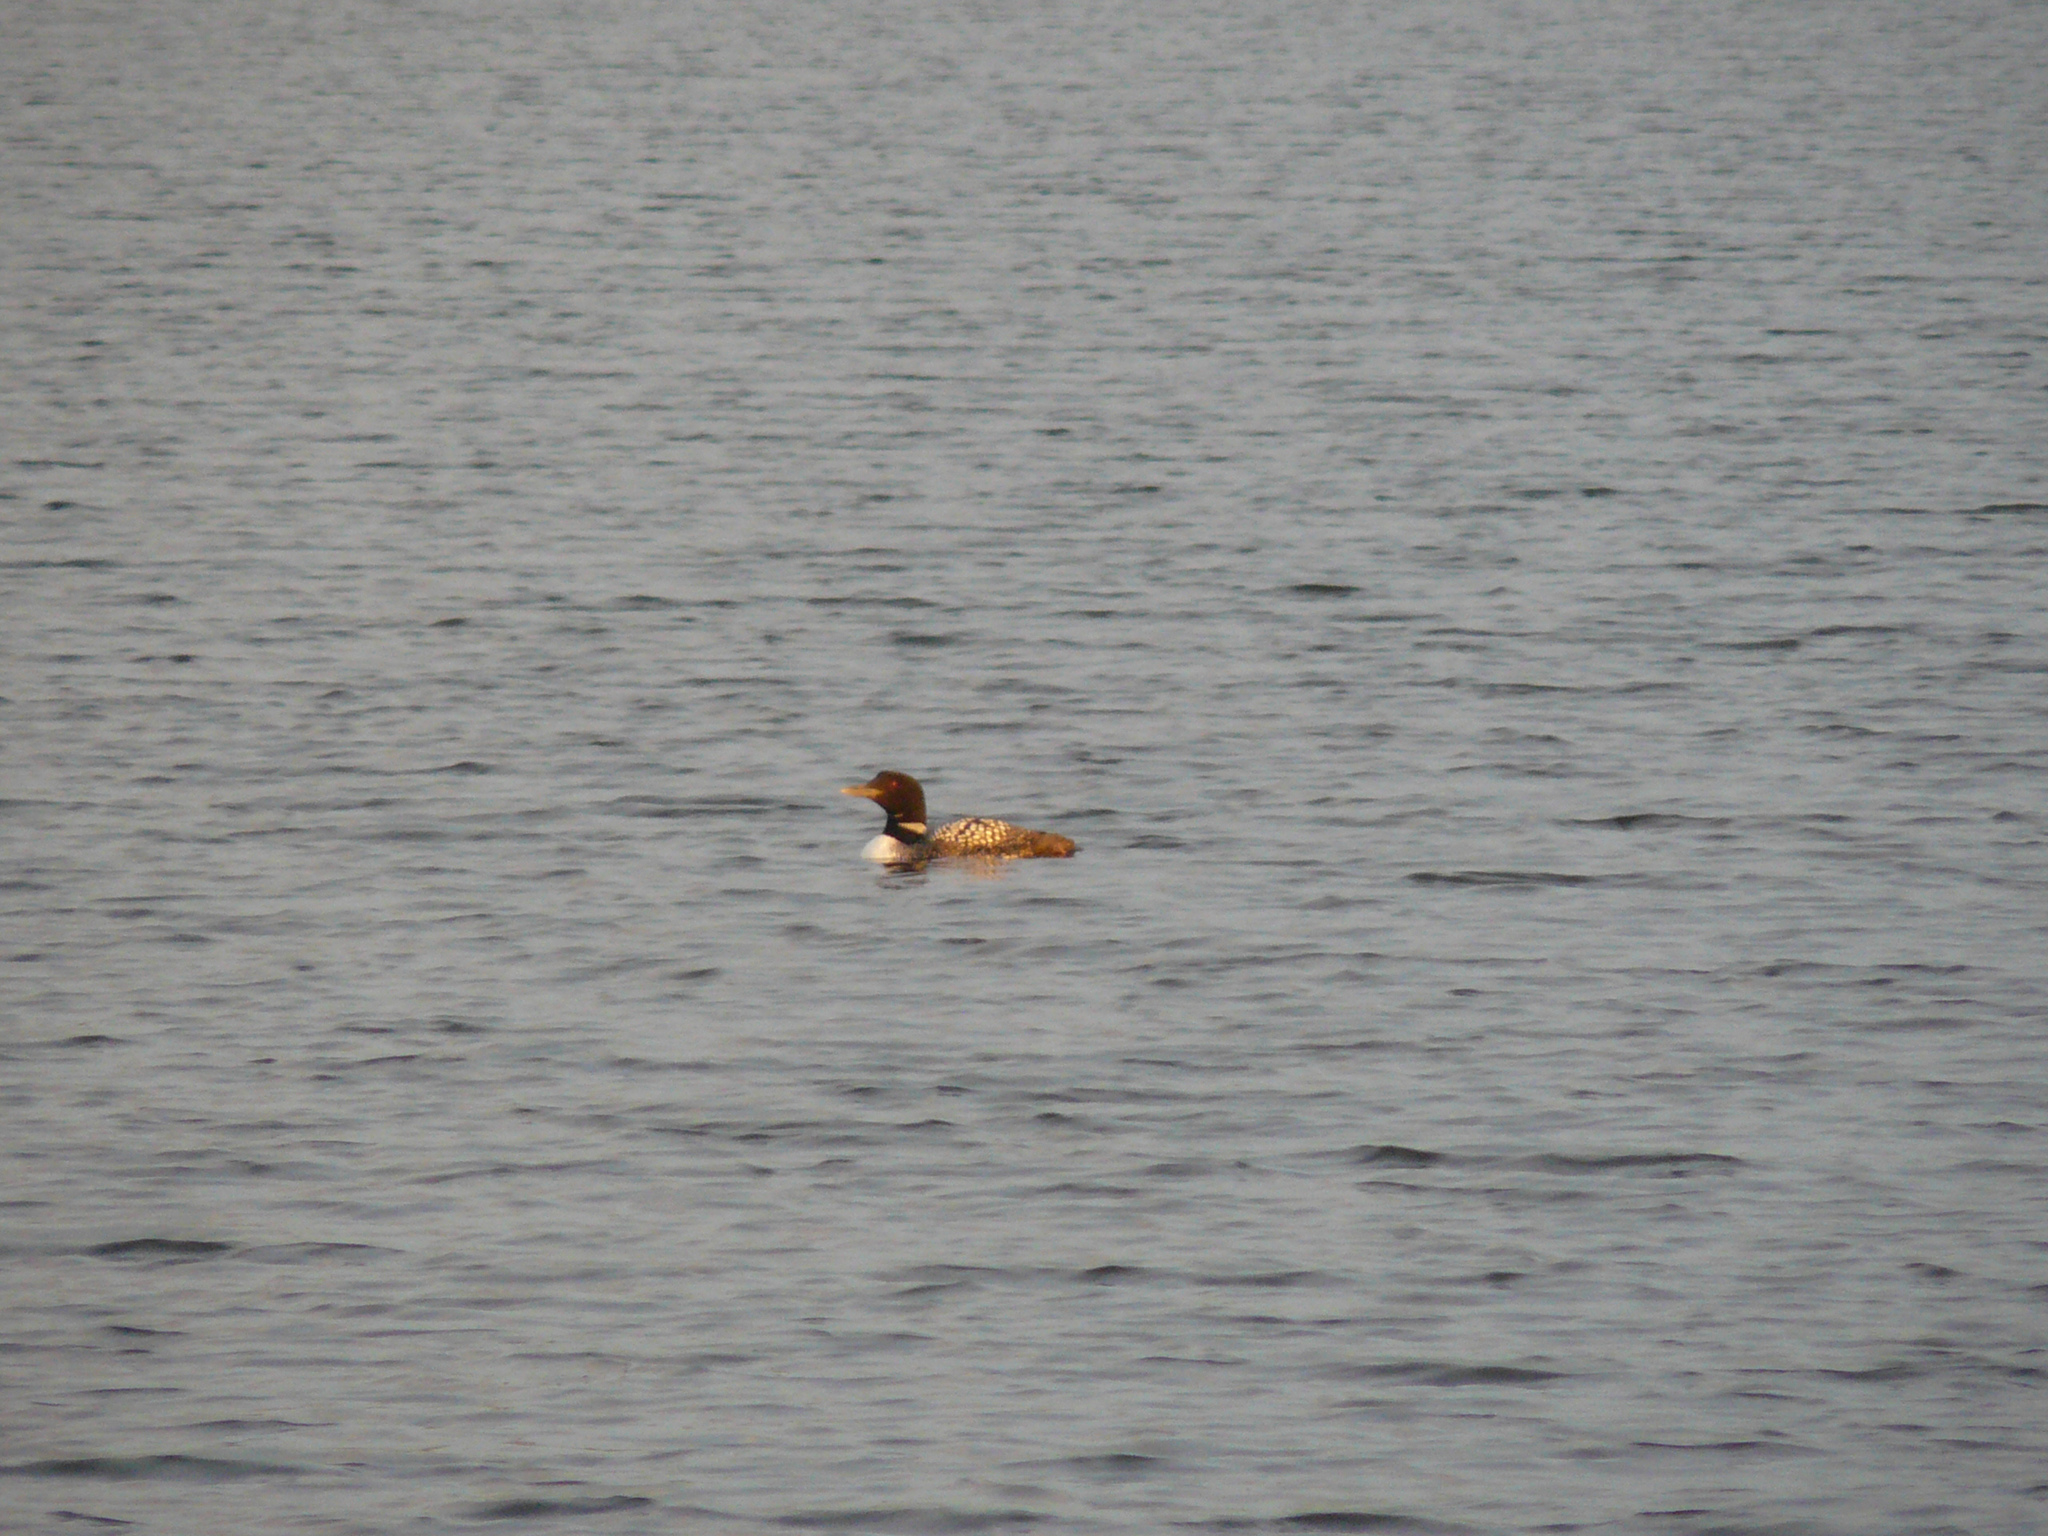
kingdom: Animalia
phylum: Chordata
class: Aves
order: Gaviiformes
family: Gaviidae
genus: Gavia
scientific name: Gavia immer
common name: Common loon
